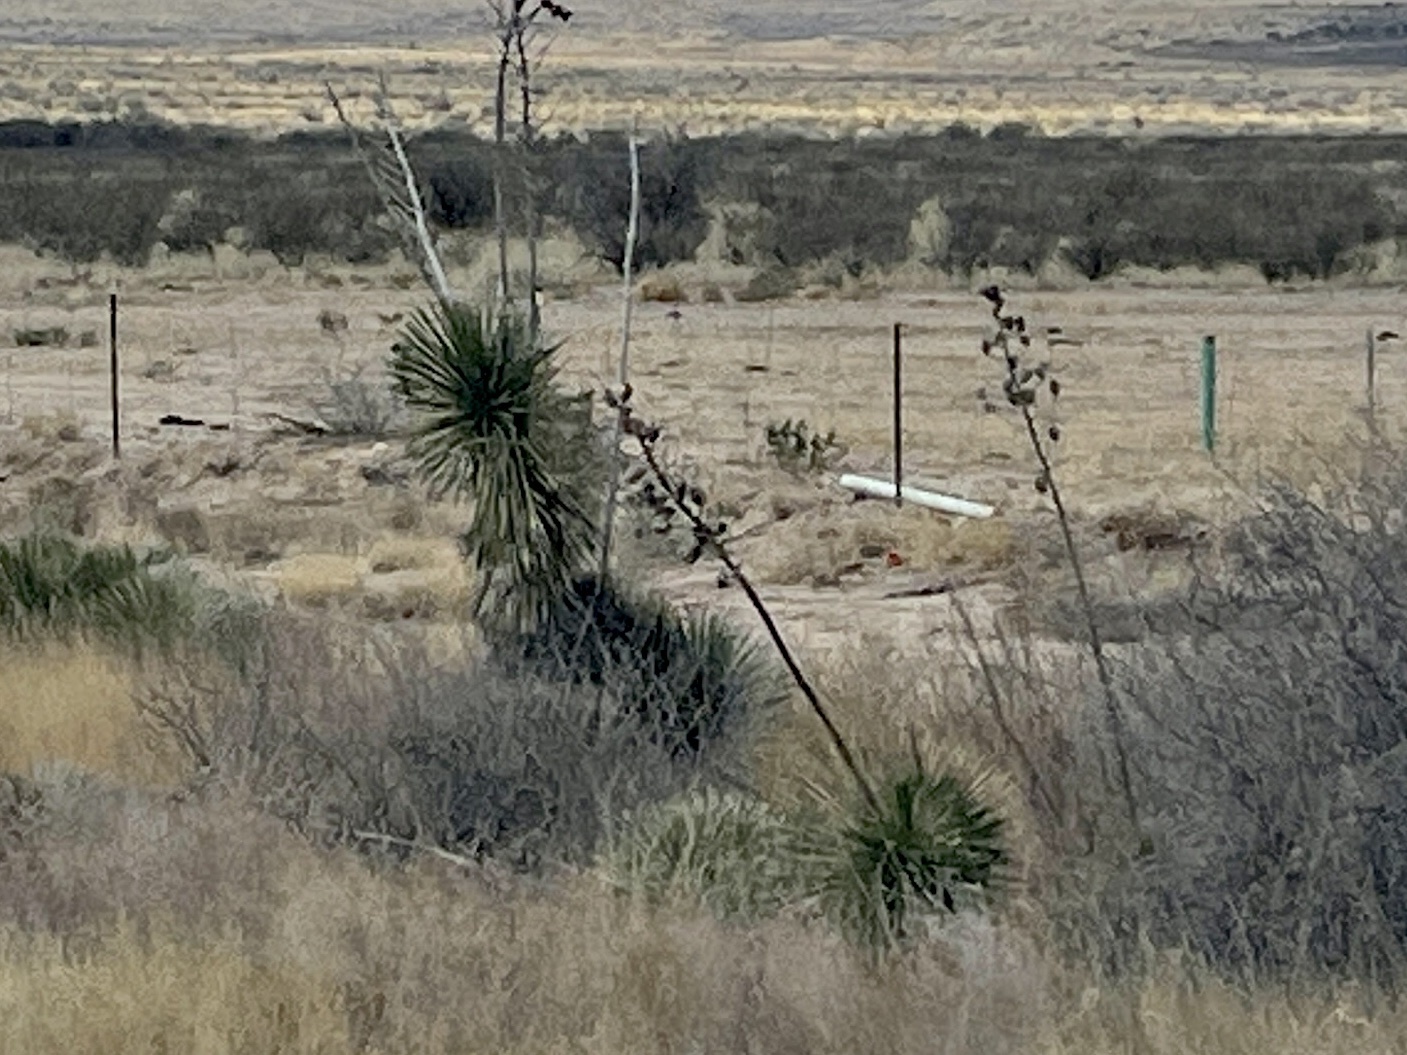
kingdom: Plantae
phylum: Tracheophyta
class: Liliopsida
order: Asparagales
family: Asparagaceae
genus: Yucca
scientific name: Yucca elata
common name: Palmella
